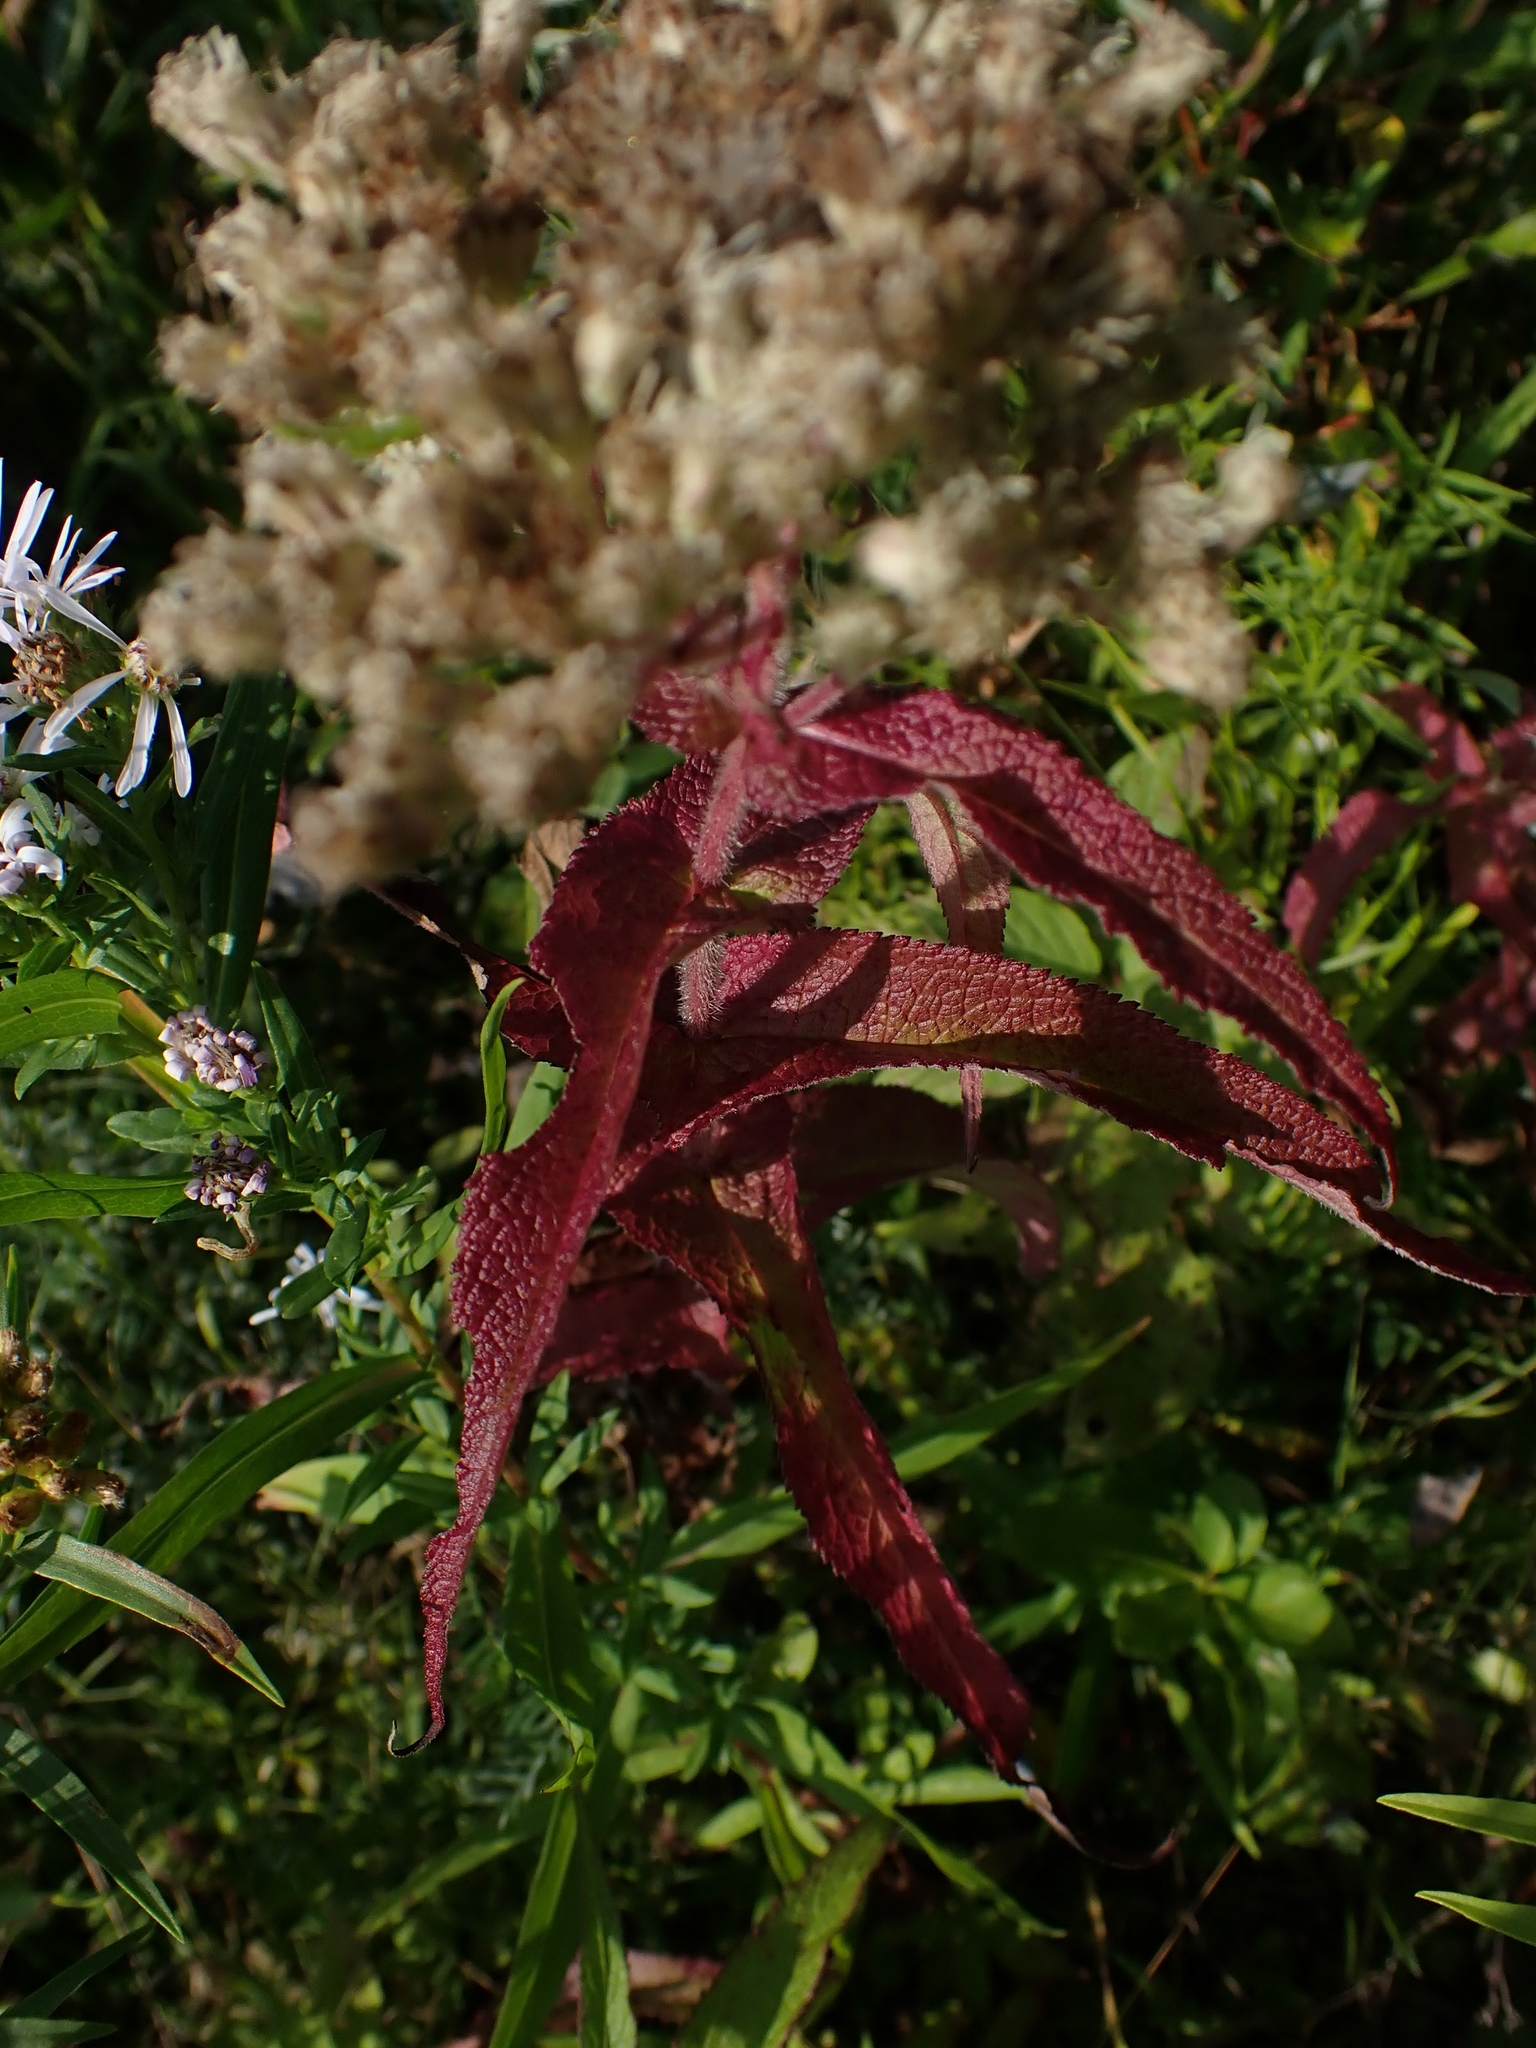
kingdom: Plantae
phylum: Tracheophyta
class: Magnoliopsida
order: Asterales
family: Asteraceae
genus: Eupatorium
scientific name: Eupatorium perfoliatum
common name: Boneset
